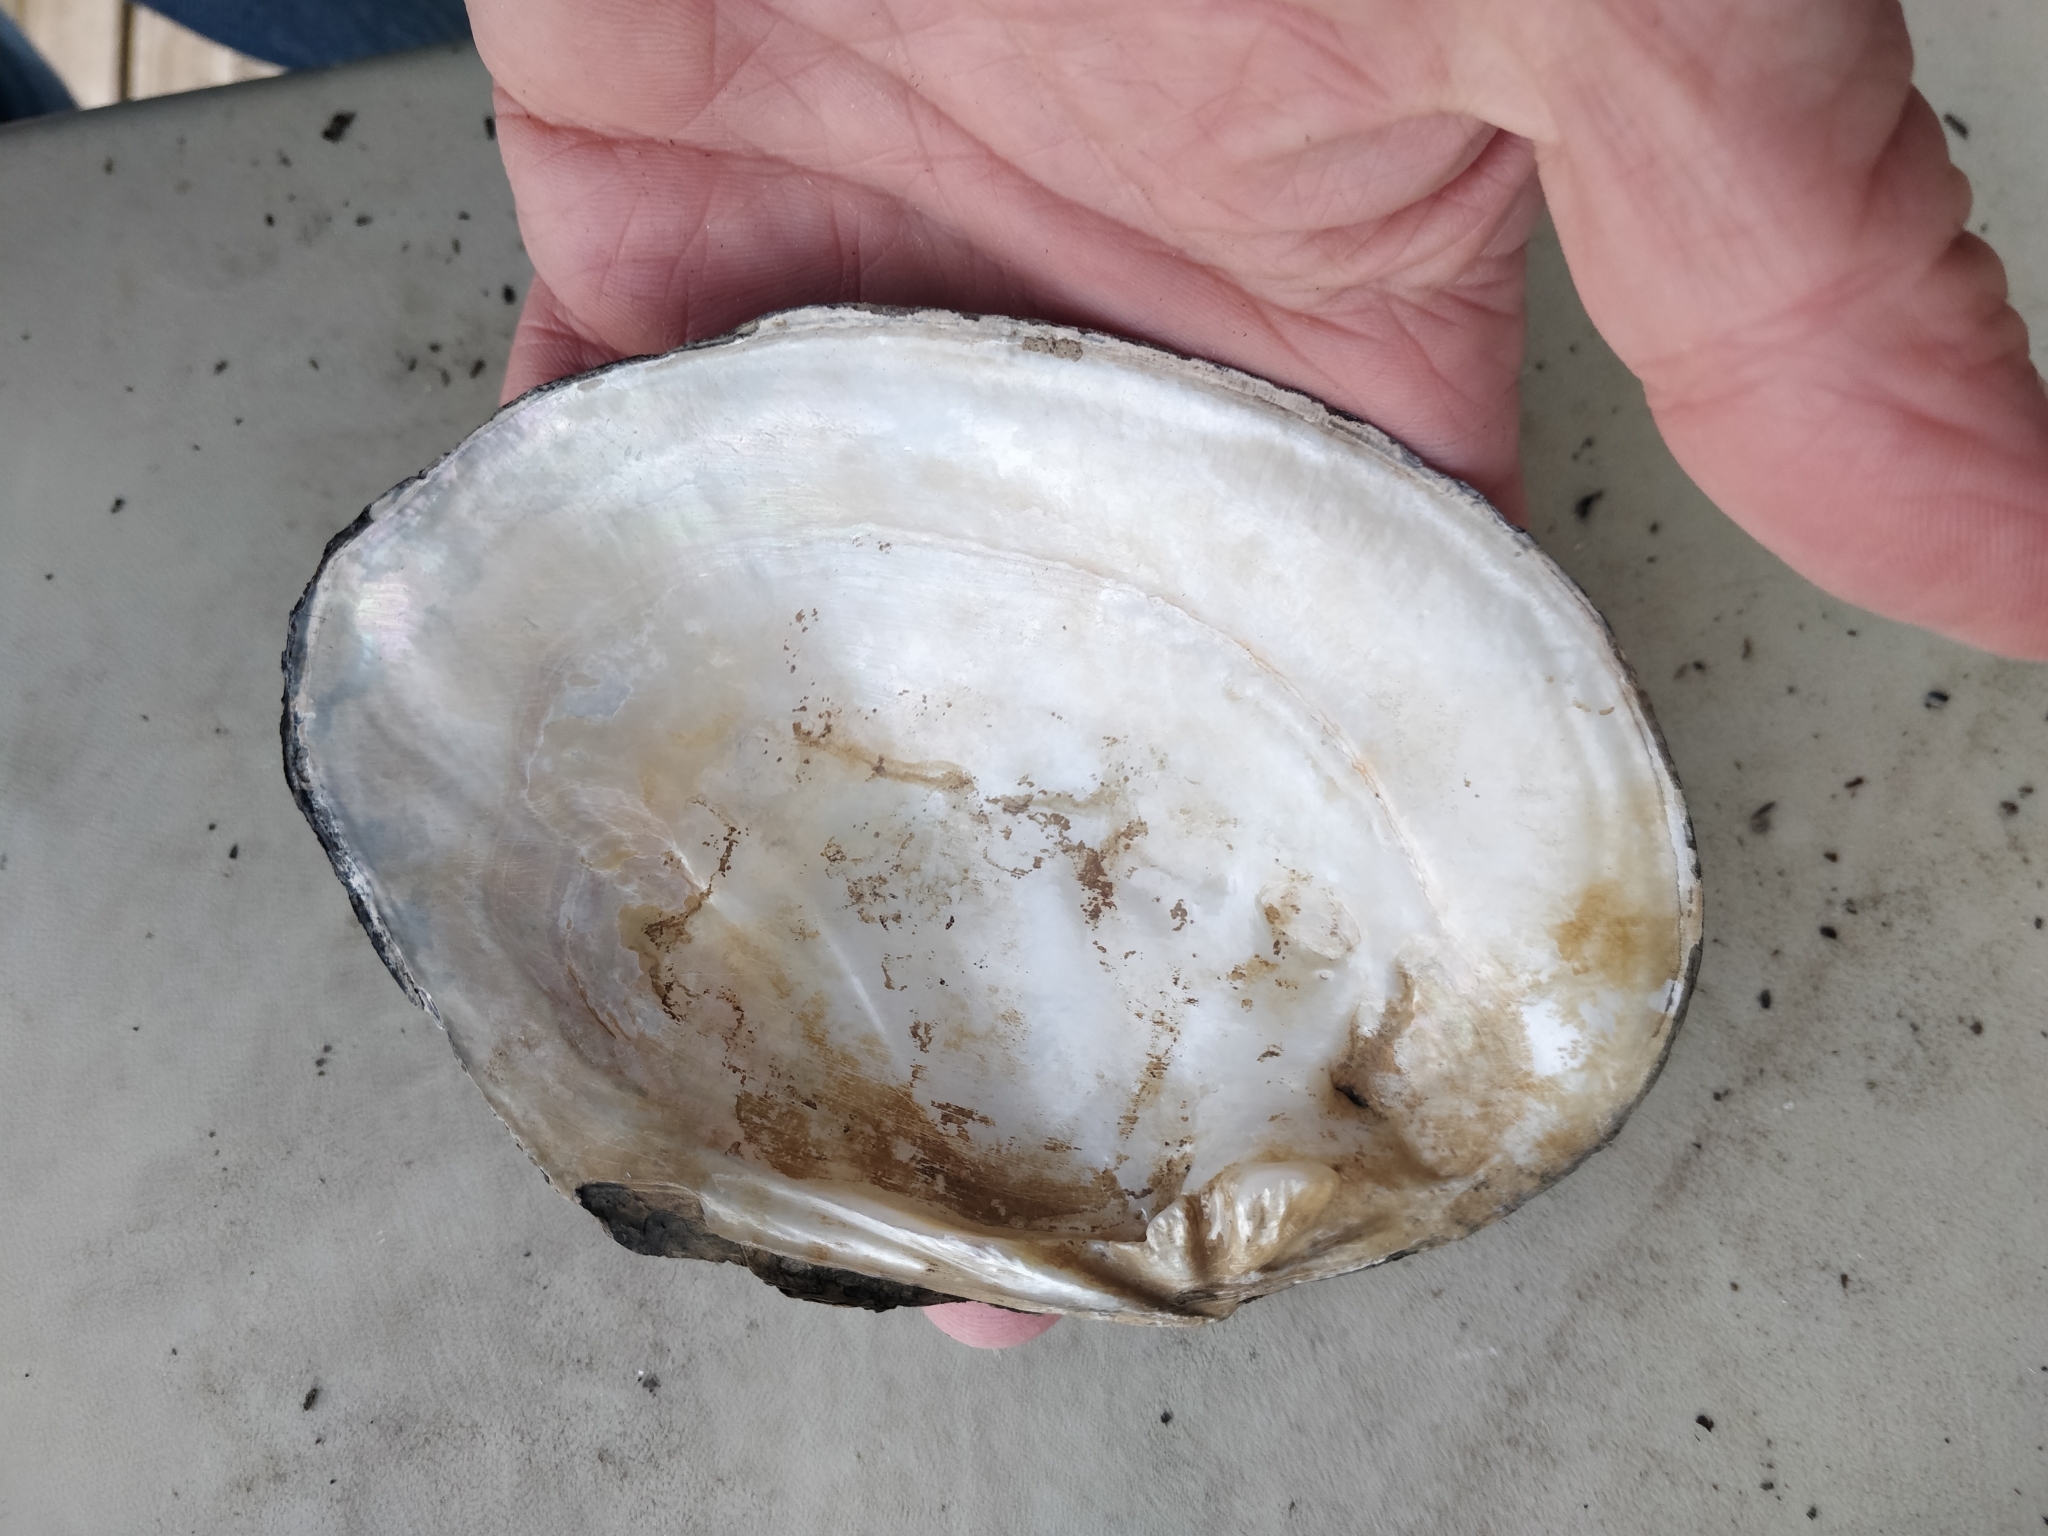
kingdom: Animalia
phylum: Mollusca
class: Bivalvia
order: Unionida
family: Unionidae
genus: Lasmigona
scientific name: Lasmigona complanata
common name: White heelsplitter
